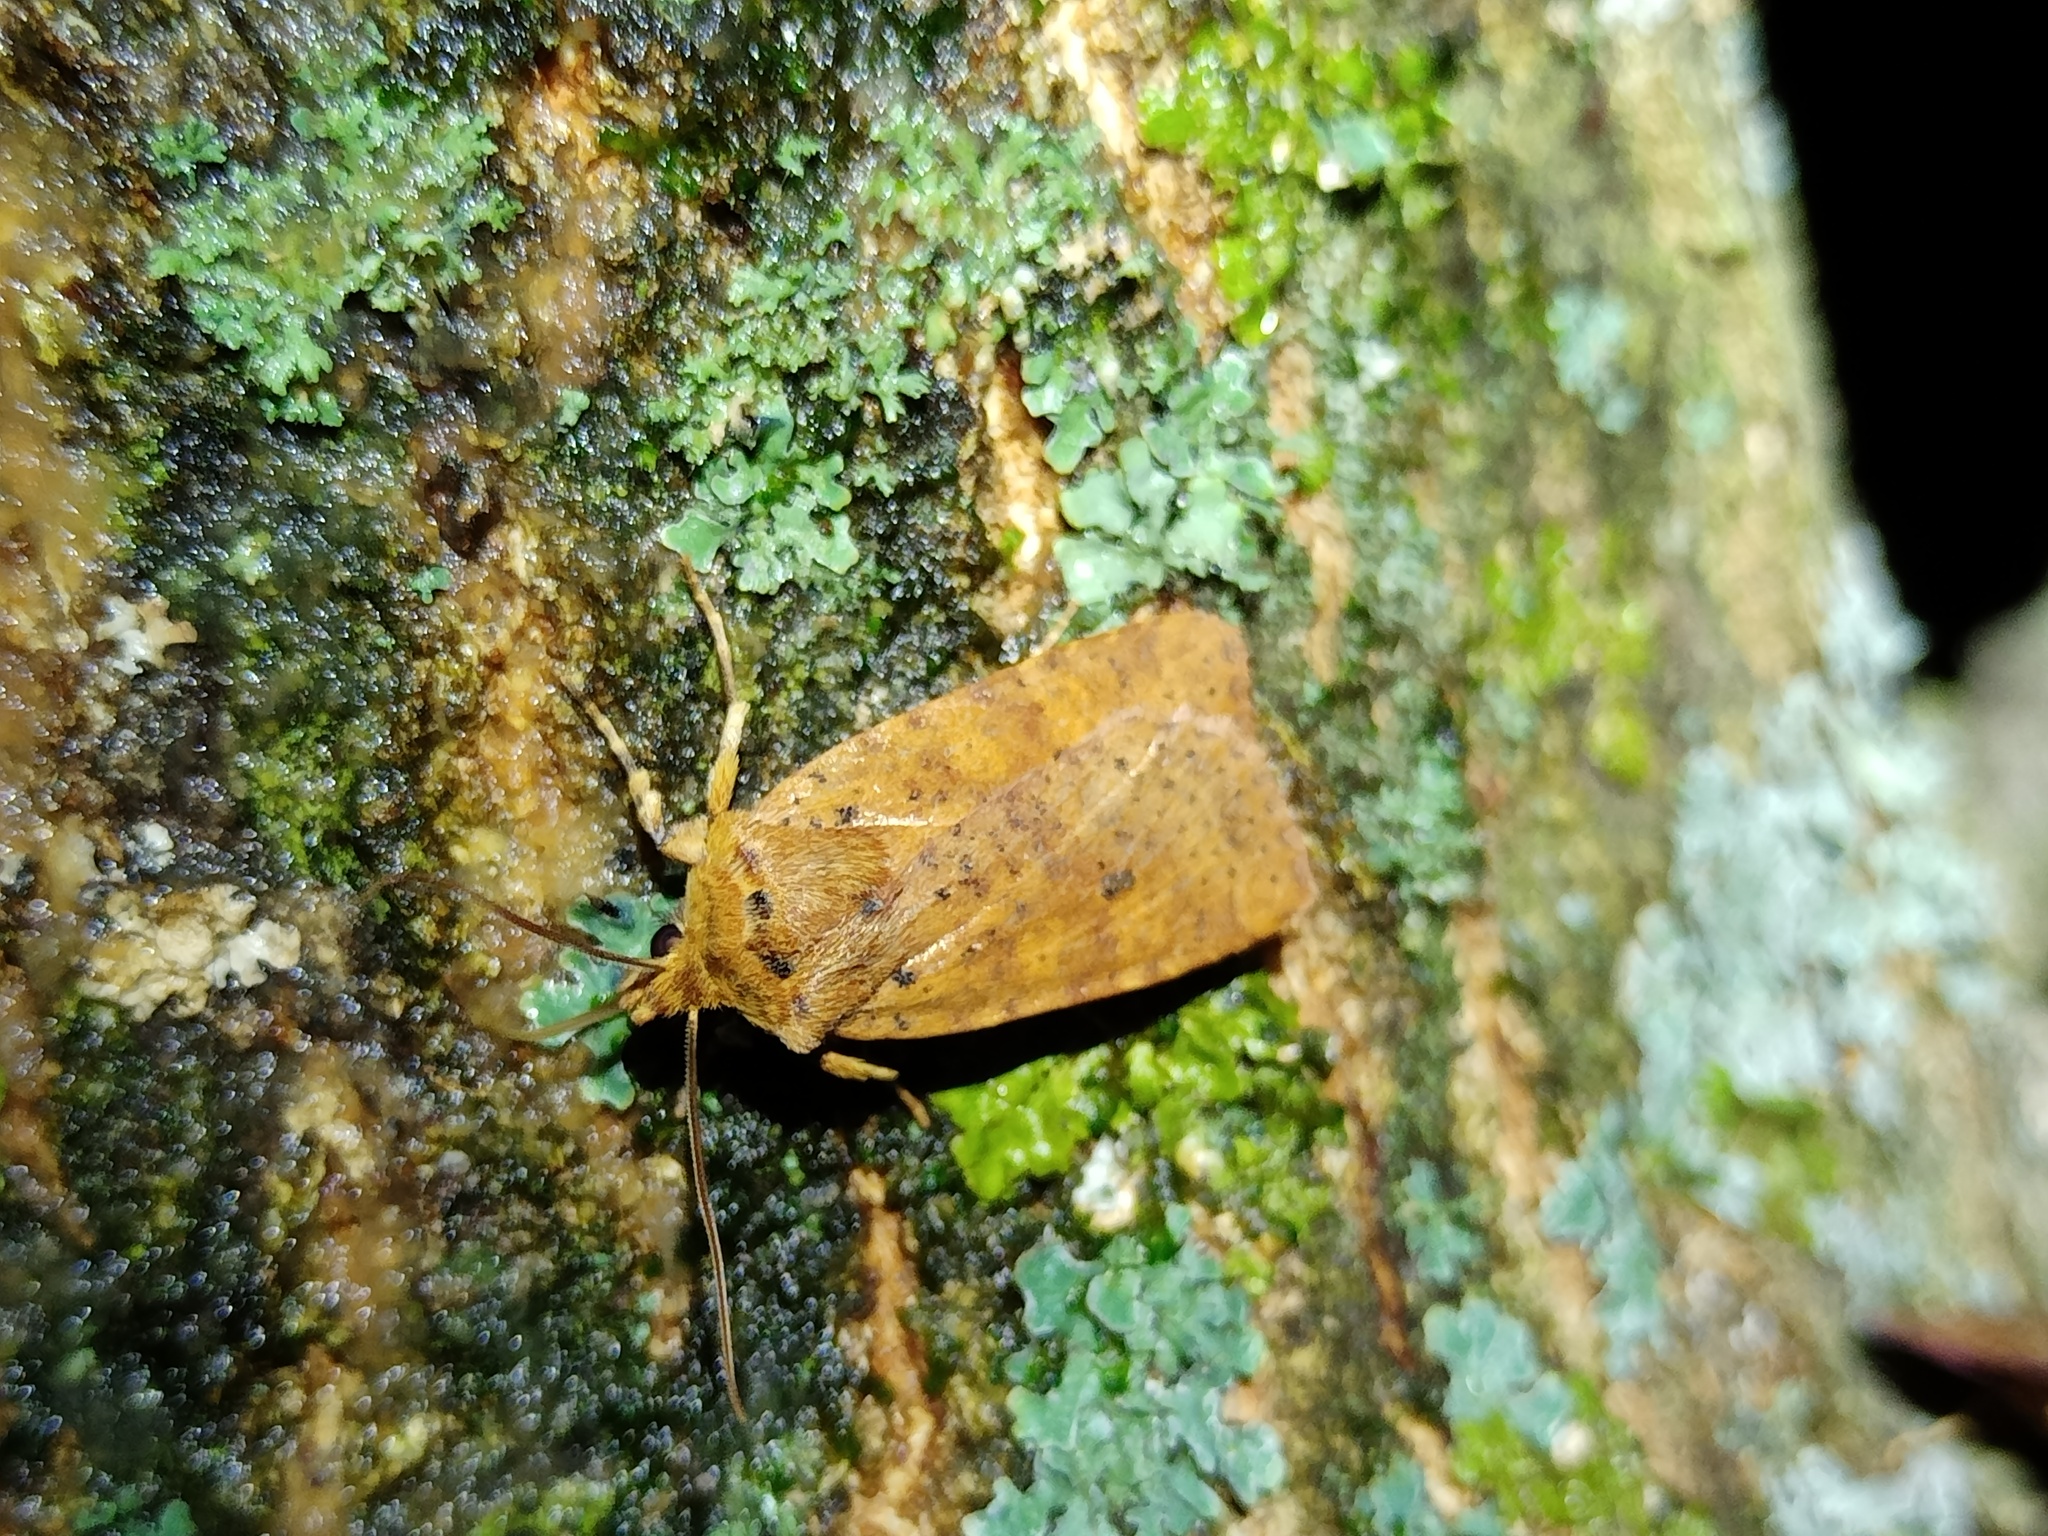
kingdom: Animalia
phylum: Arthropoda
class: Insecta
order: Lepidoptera
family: Noctuidae
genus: Conistra
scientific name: Conistra rubiginea
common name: Dotted chestnut
